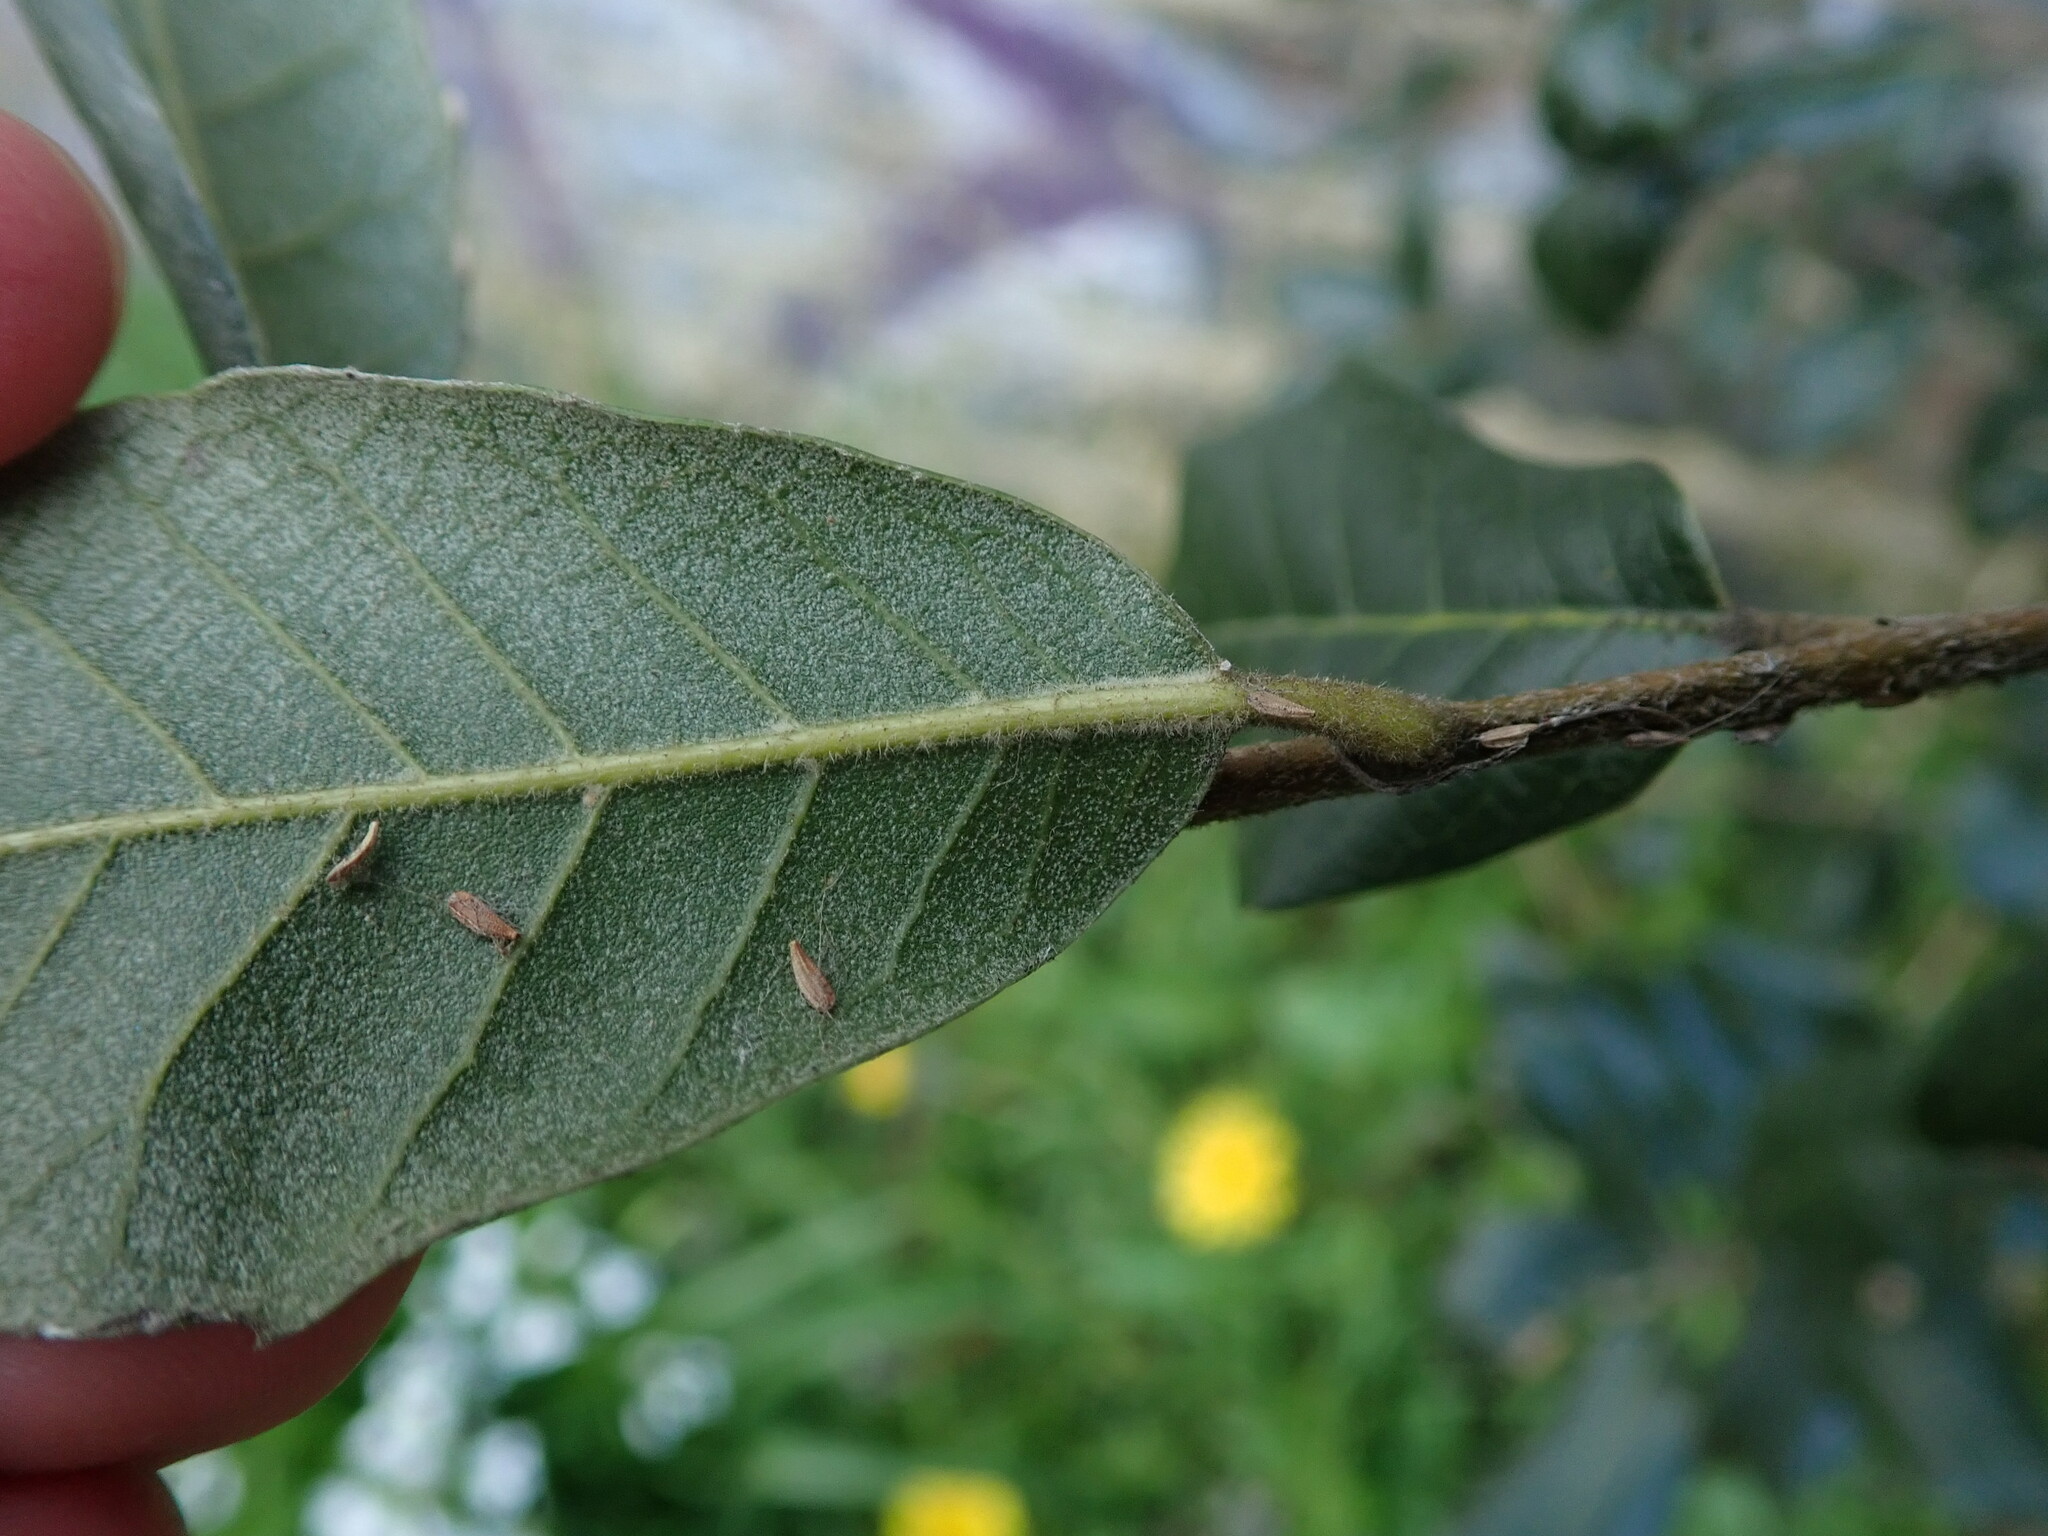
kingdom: Plantae
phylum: Tracheophyta
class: Magnoliopsida
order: Fagales
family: Fagaceae
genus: Quercus
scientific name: Quercus ilex
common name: Evergreen oak
